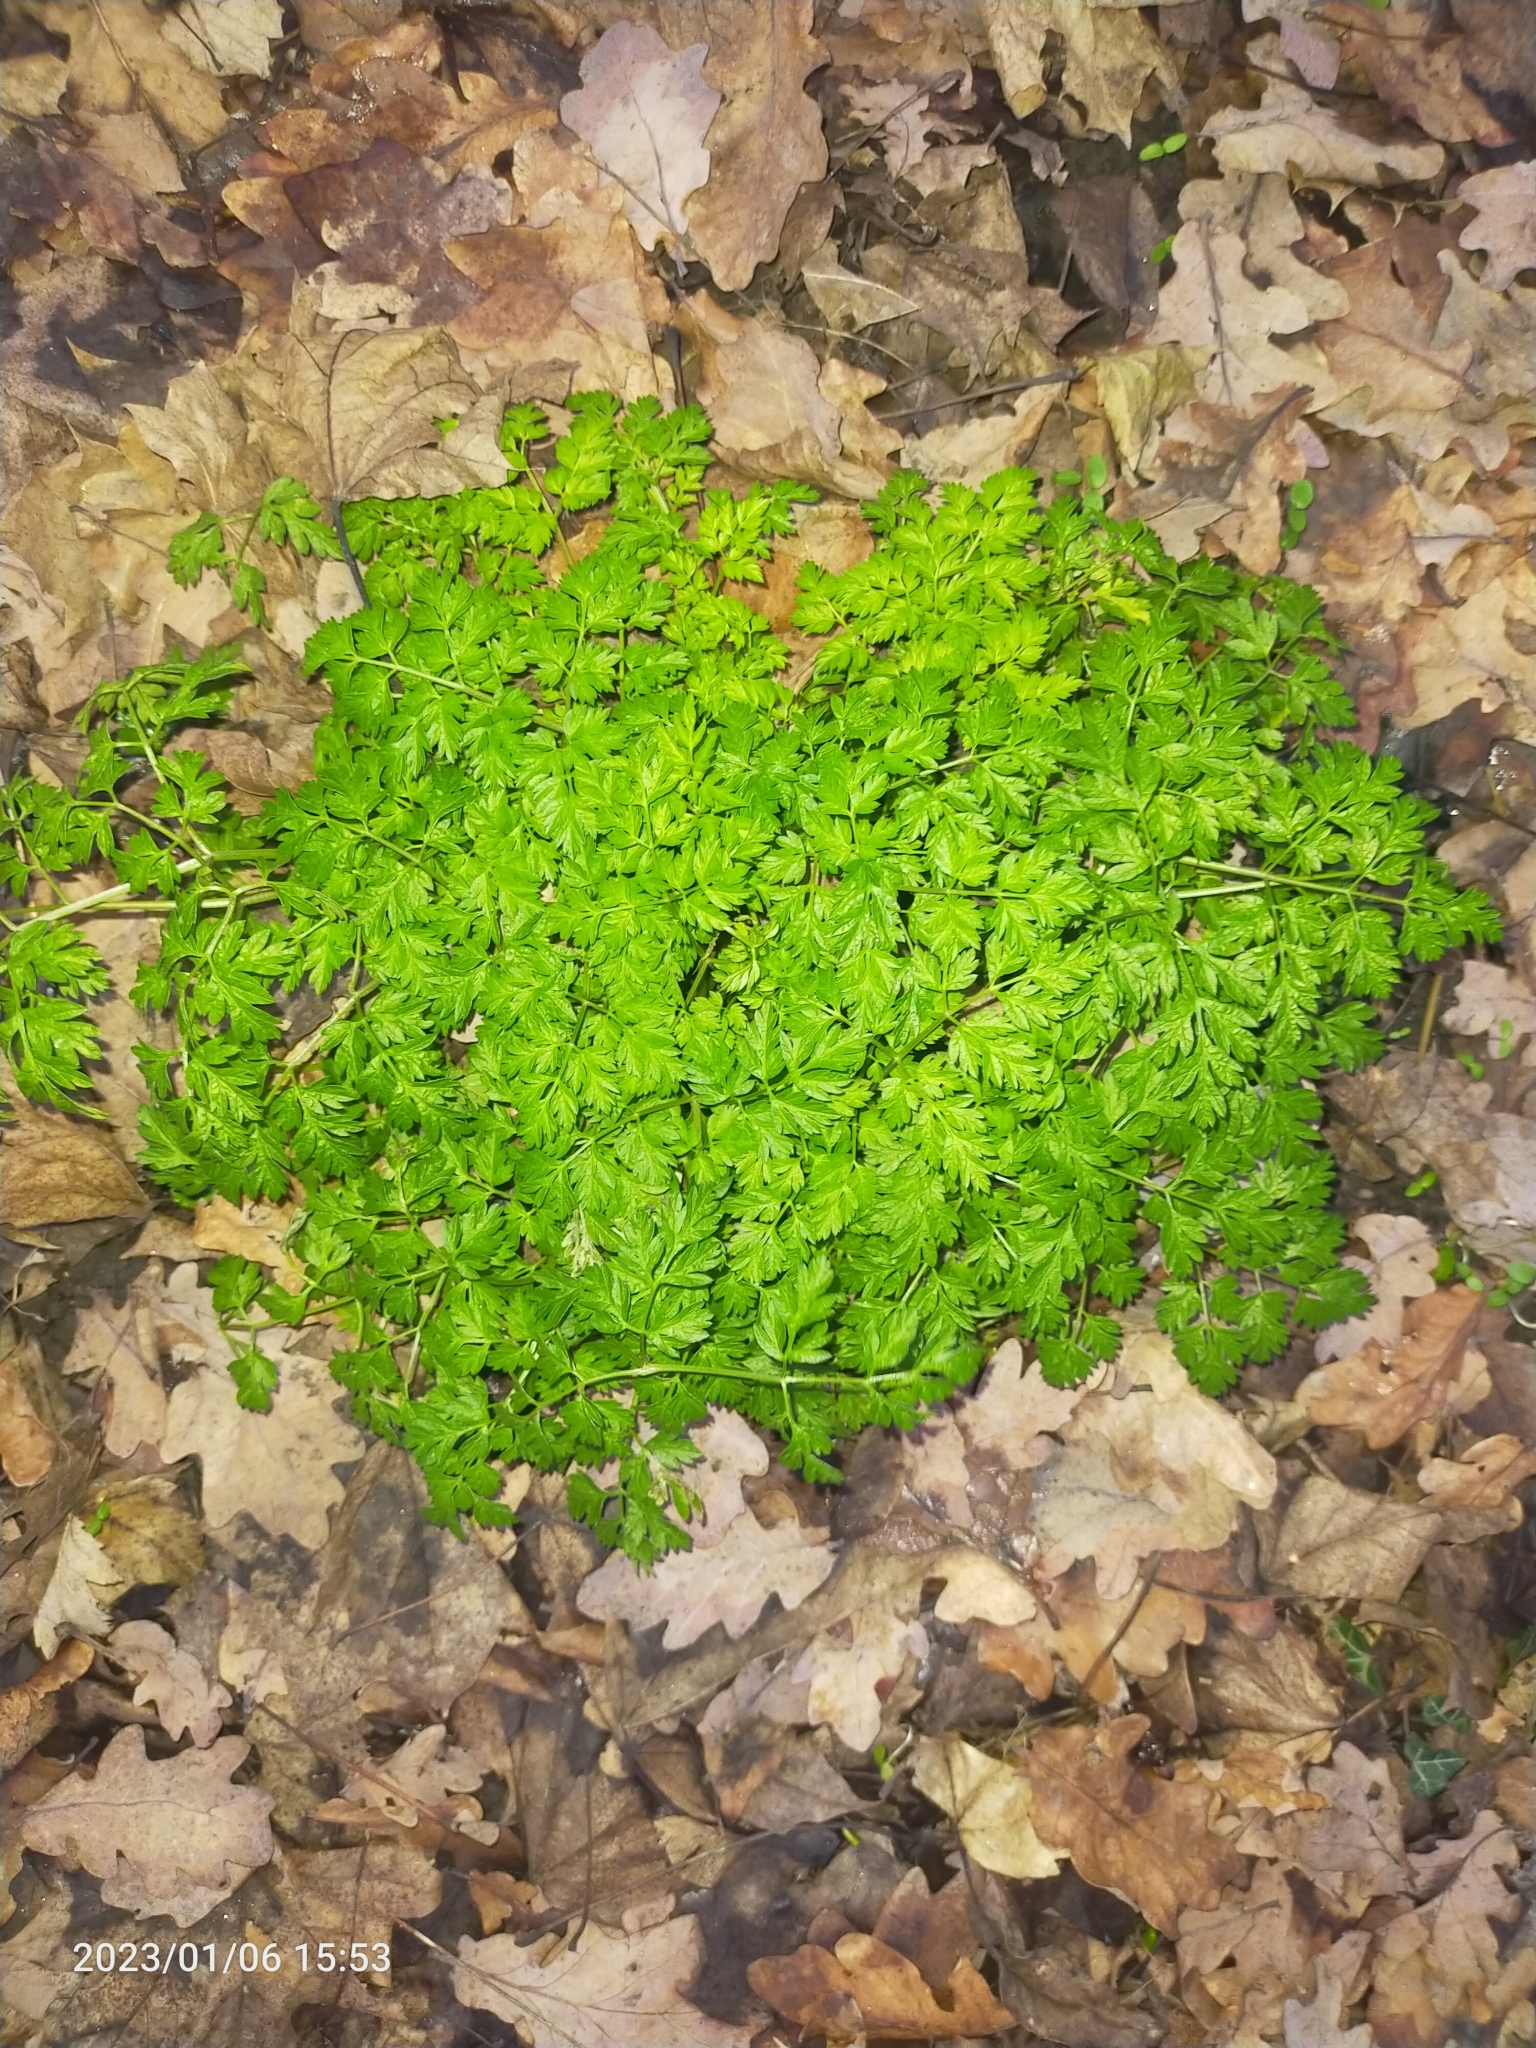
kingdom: Plantae
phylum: Tracheophyta
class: Magnoliopsida
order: Apiales
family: Apiaceae
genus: Anthriscus
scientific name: Anthriscus sylvestris
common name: Cow parsley
